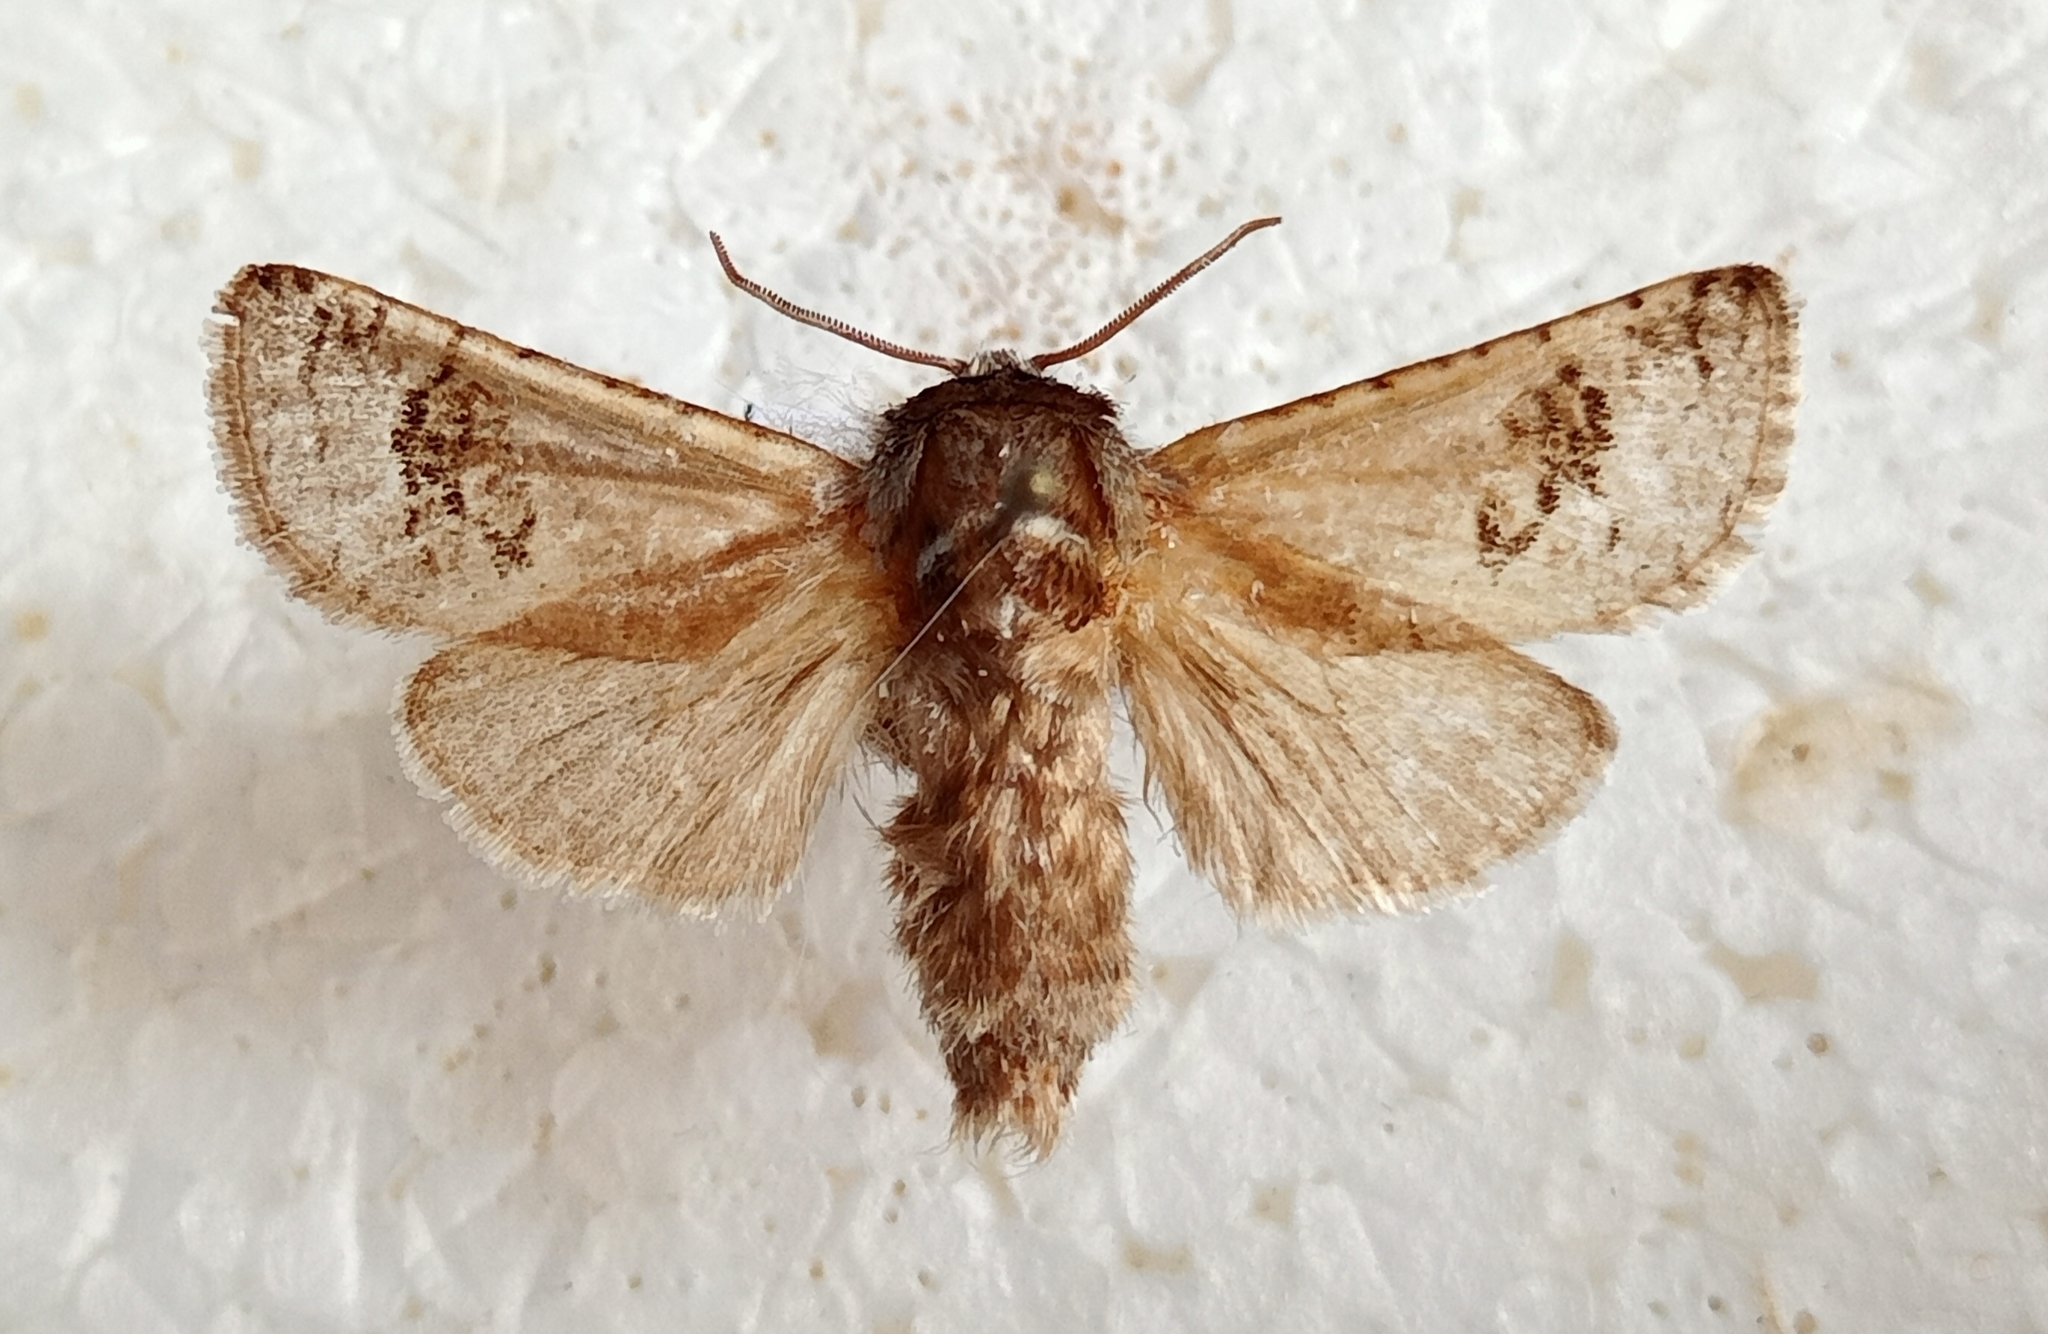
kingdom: Animalia
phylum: Arthropoda
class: Insecta
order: Lepidoptera
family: Cossidae
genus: Parahypopta
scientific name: Parahypopta caestrum
